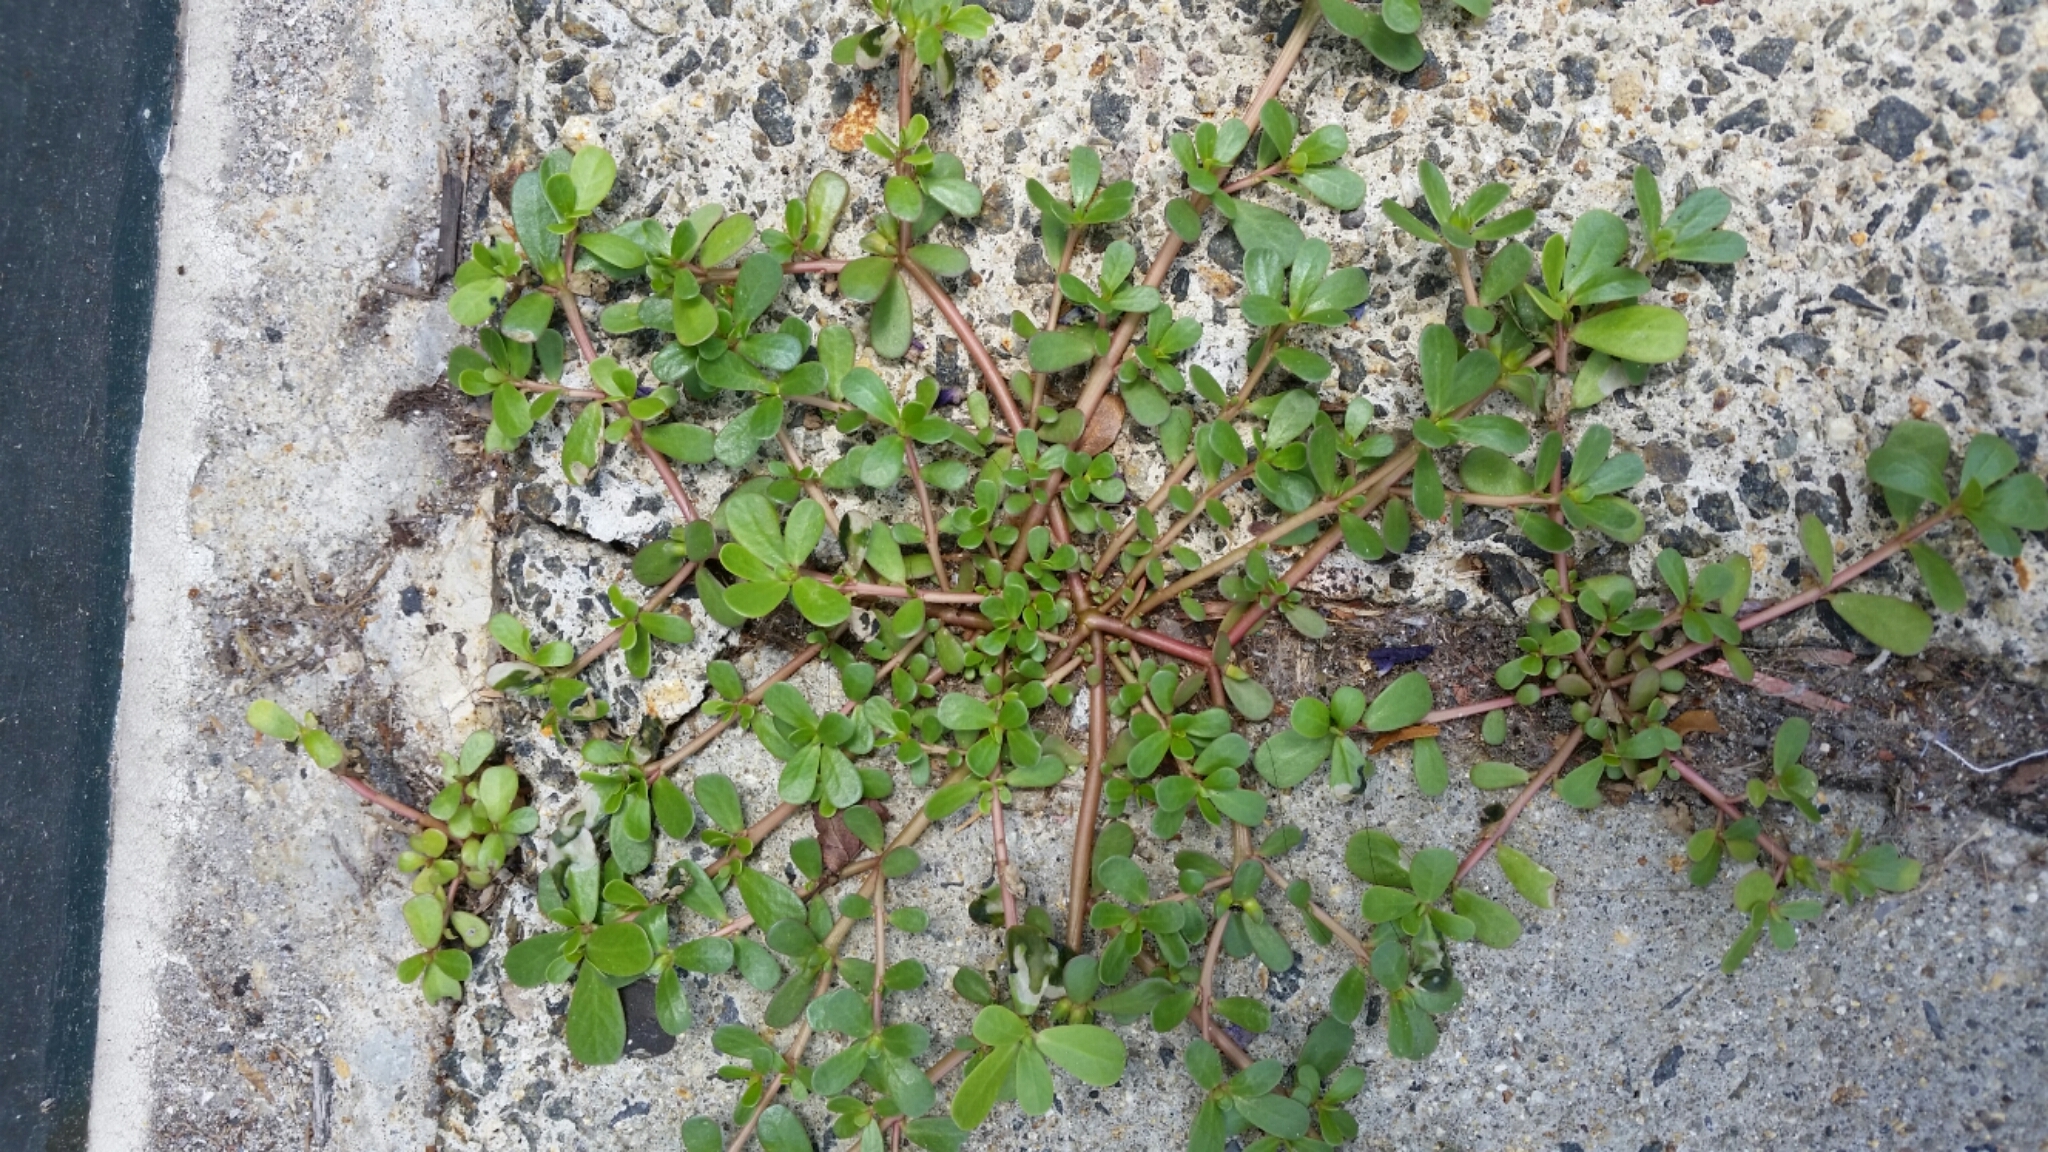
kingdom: Plantae
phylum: Tracheophyta
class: Magnoliopsida
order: Caryophyllales
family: Portulacaceae
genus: Portulaca
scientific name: Portulaca oleracea
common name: Common purslane
